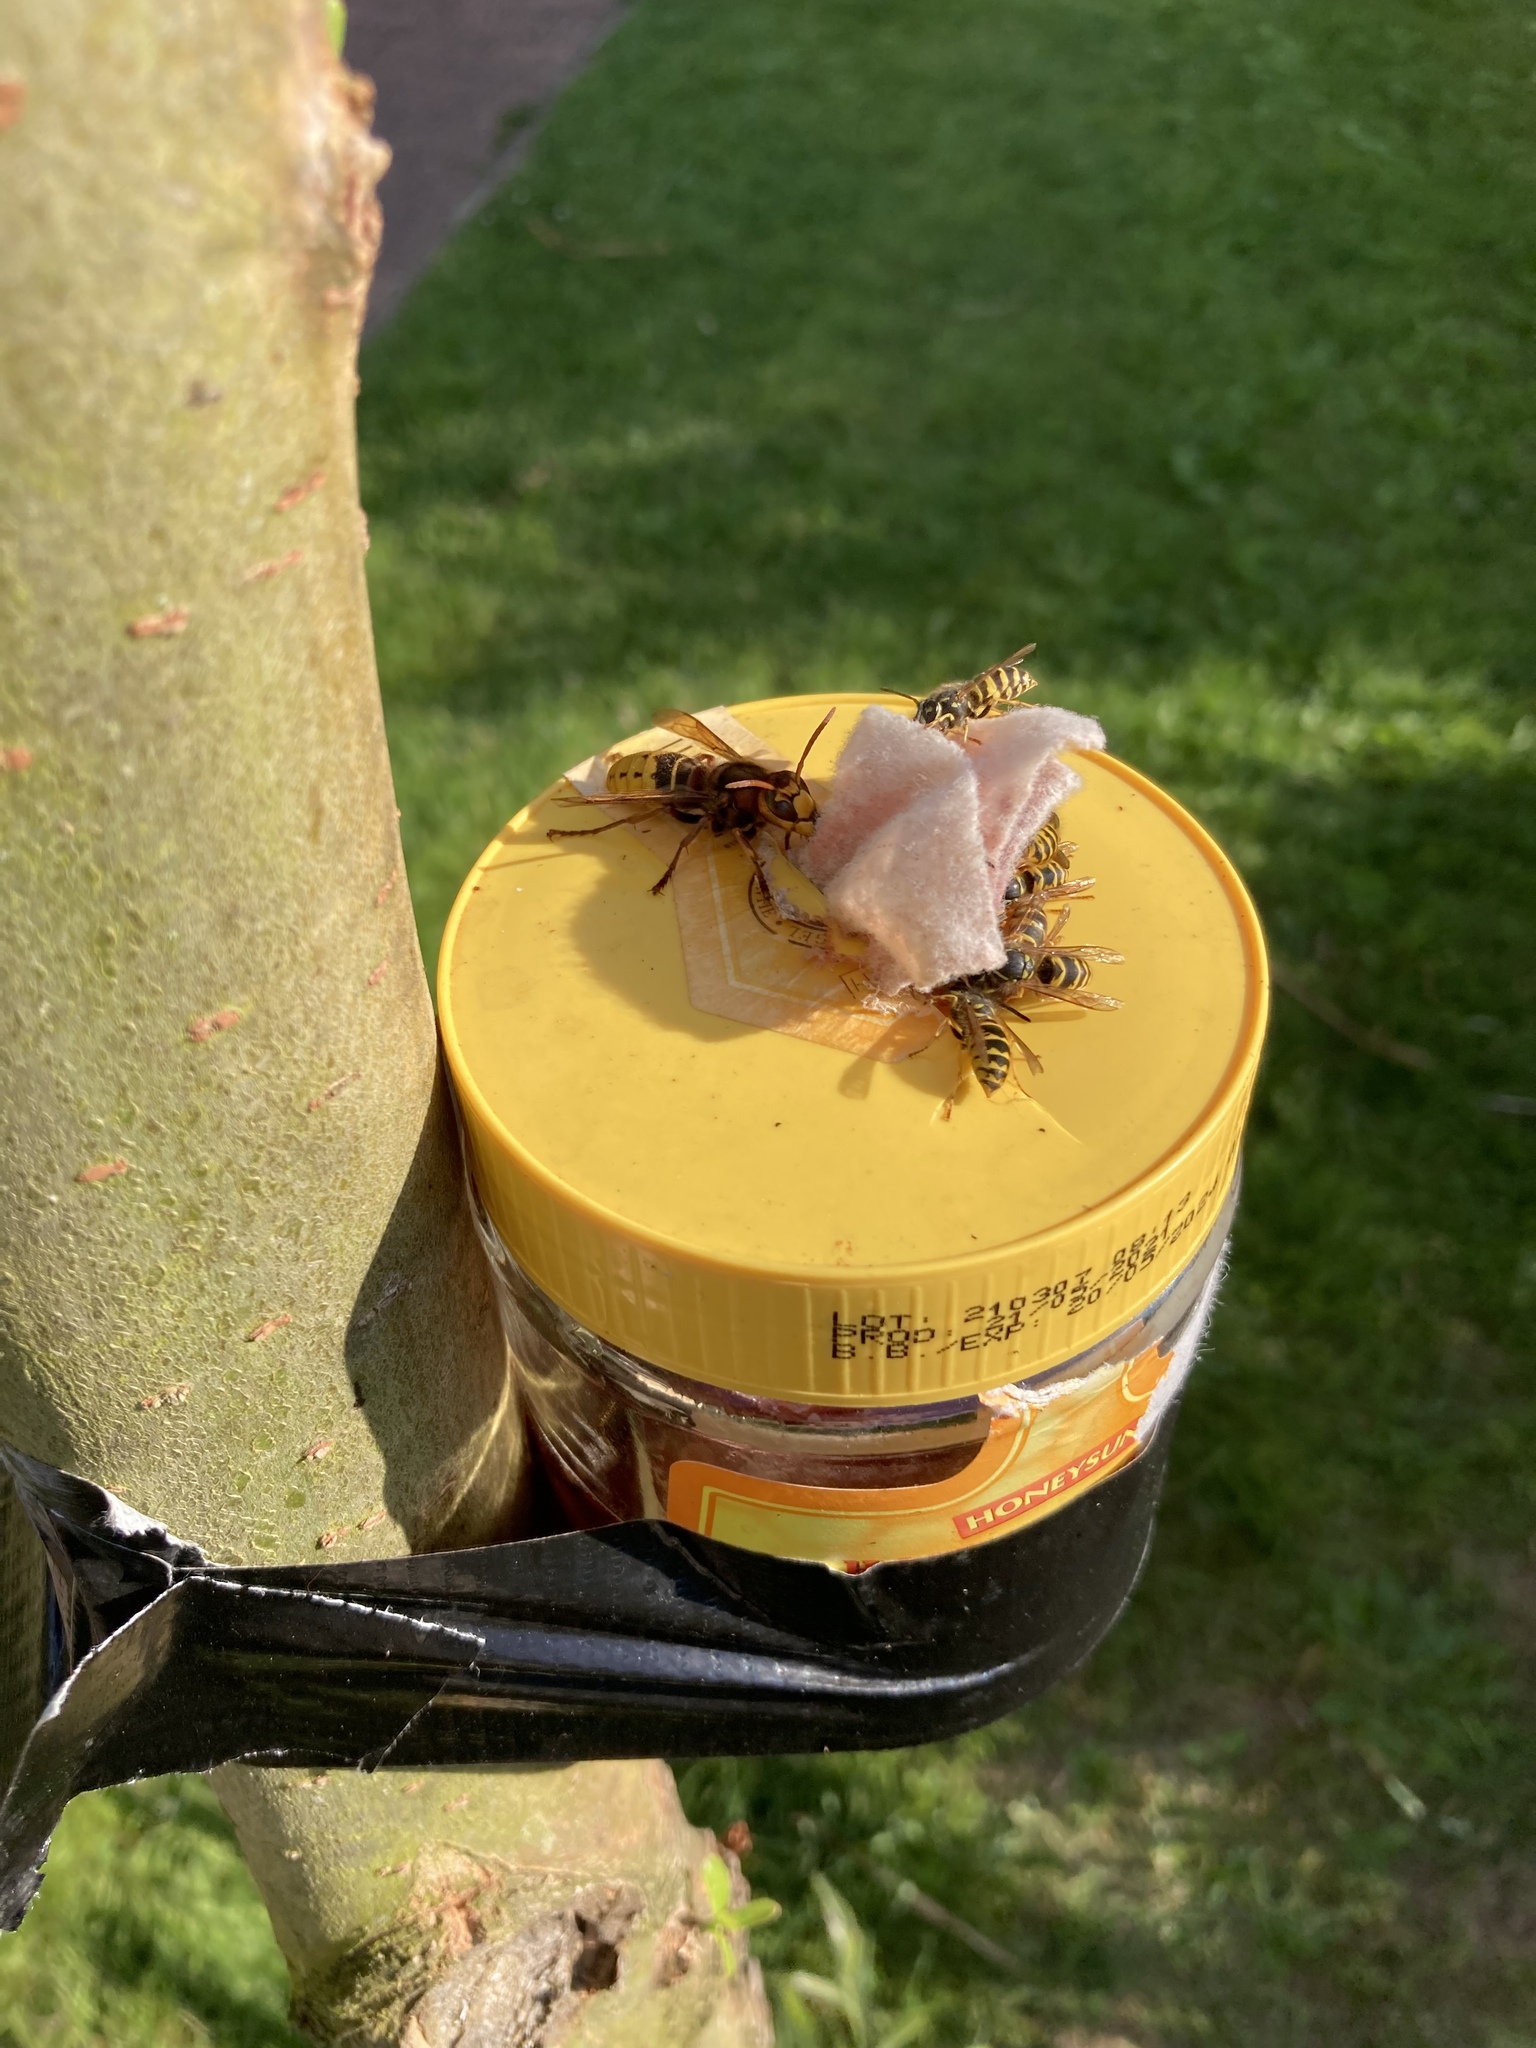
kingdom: Animalia
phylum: Arthropoda
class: Insecta
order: Hymenoptera
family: Vespidae
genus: Vespa
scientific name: Vespa crabro
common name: Hornet
